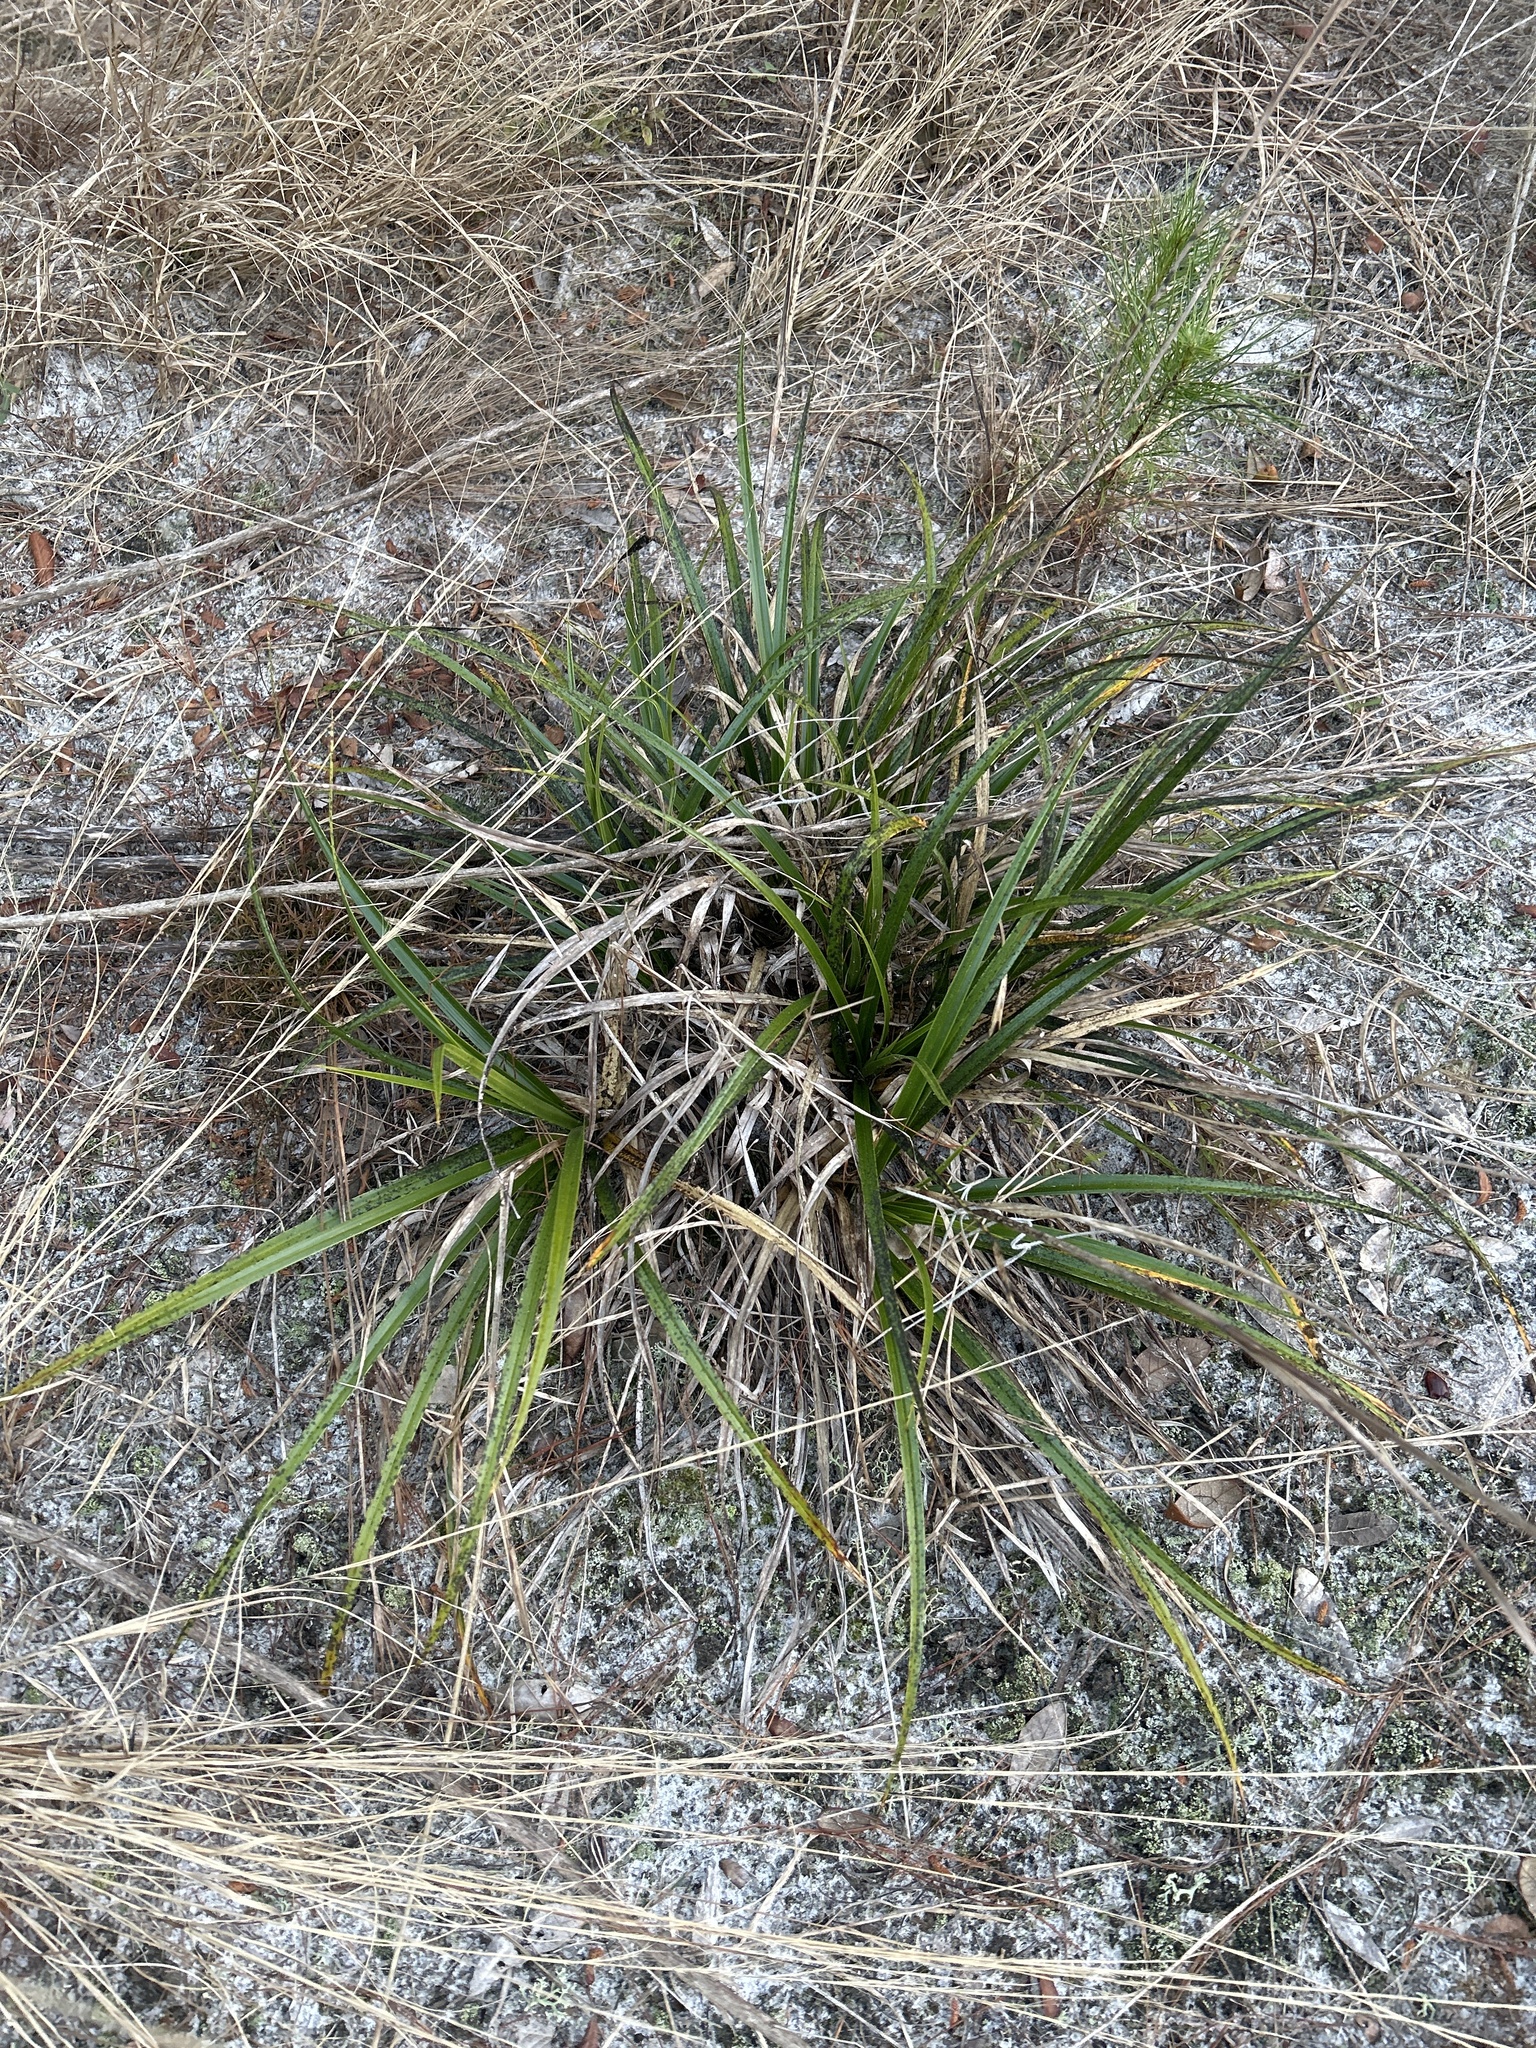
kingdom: Plantae
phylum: Tracheophyta
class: Liliopsida
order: Poales
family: Cyperaceae
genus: Rhynchospora
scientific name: Rhynchospora megalocarpa
